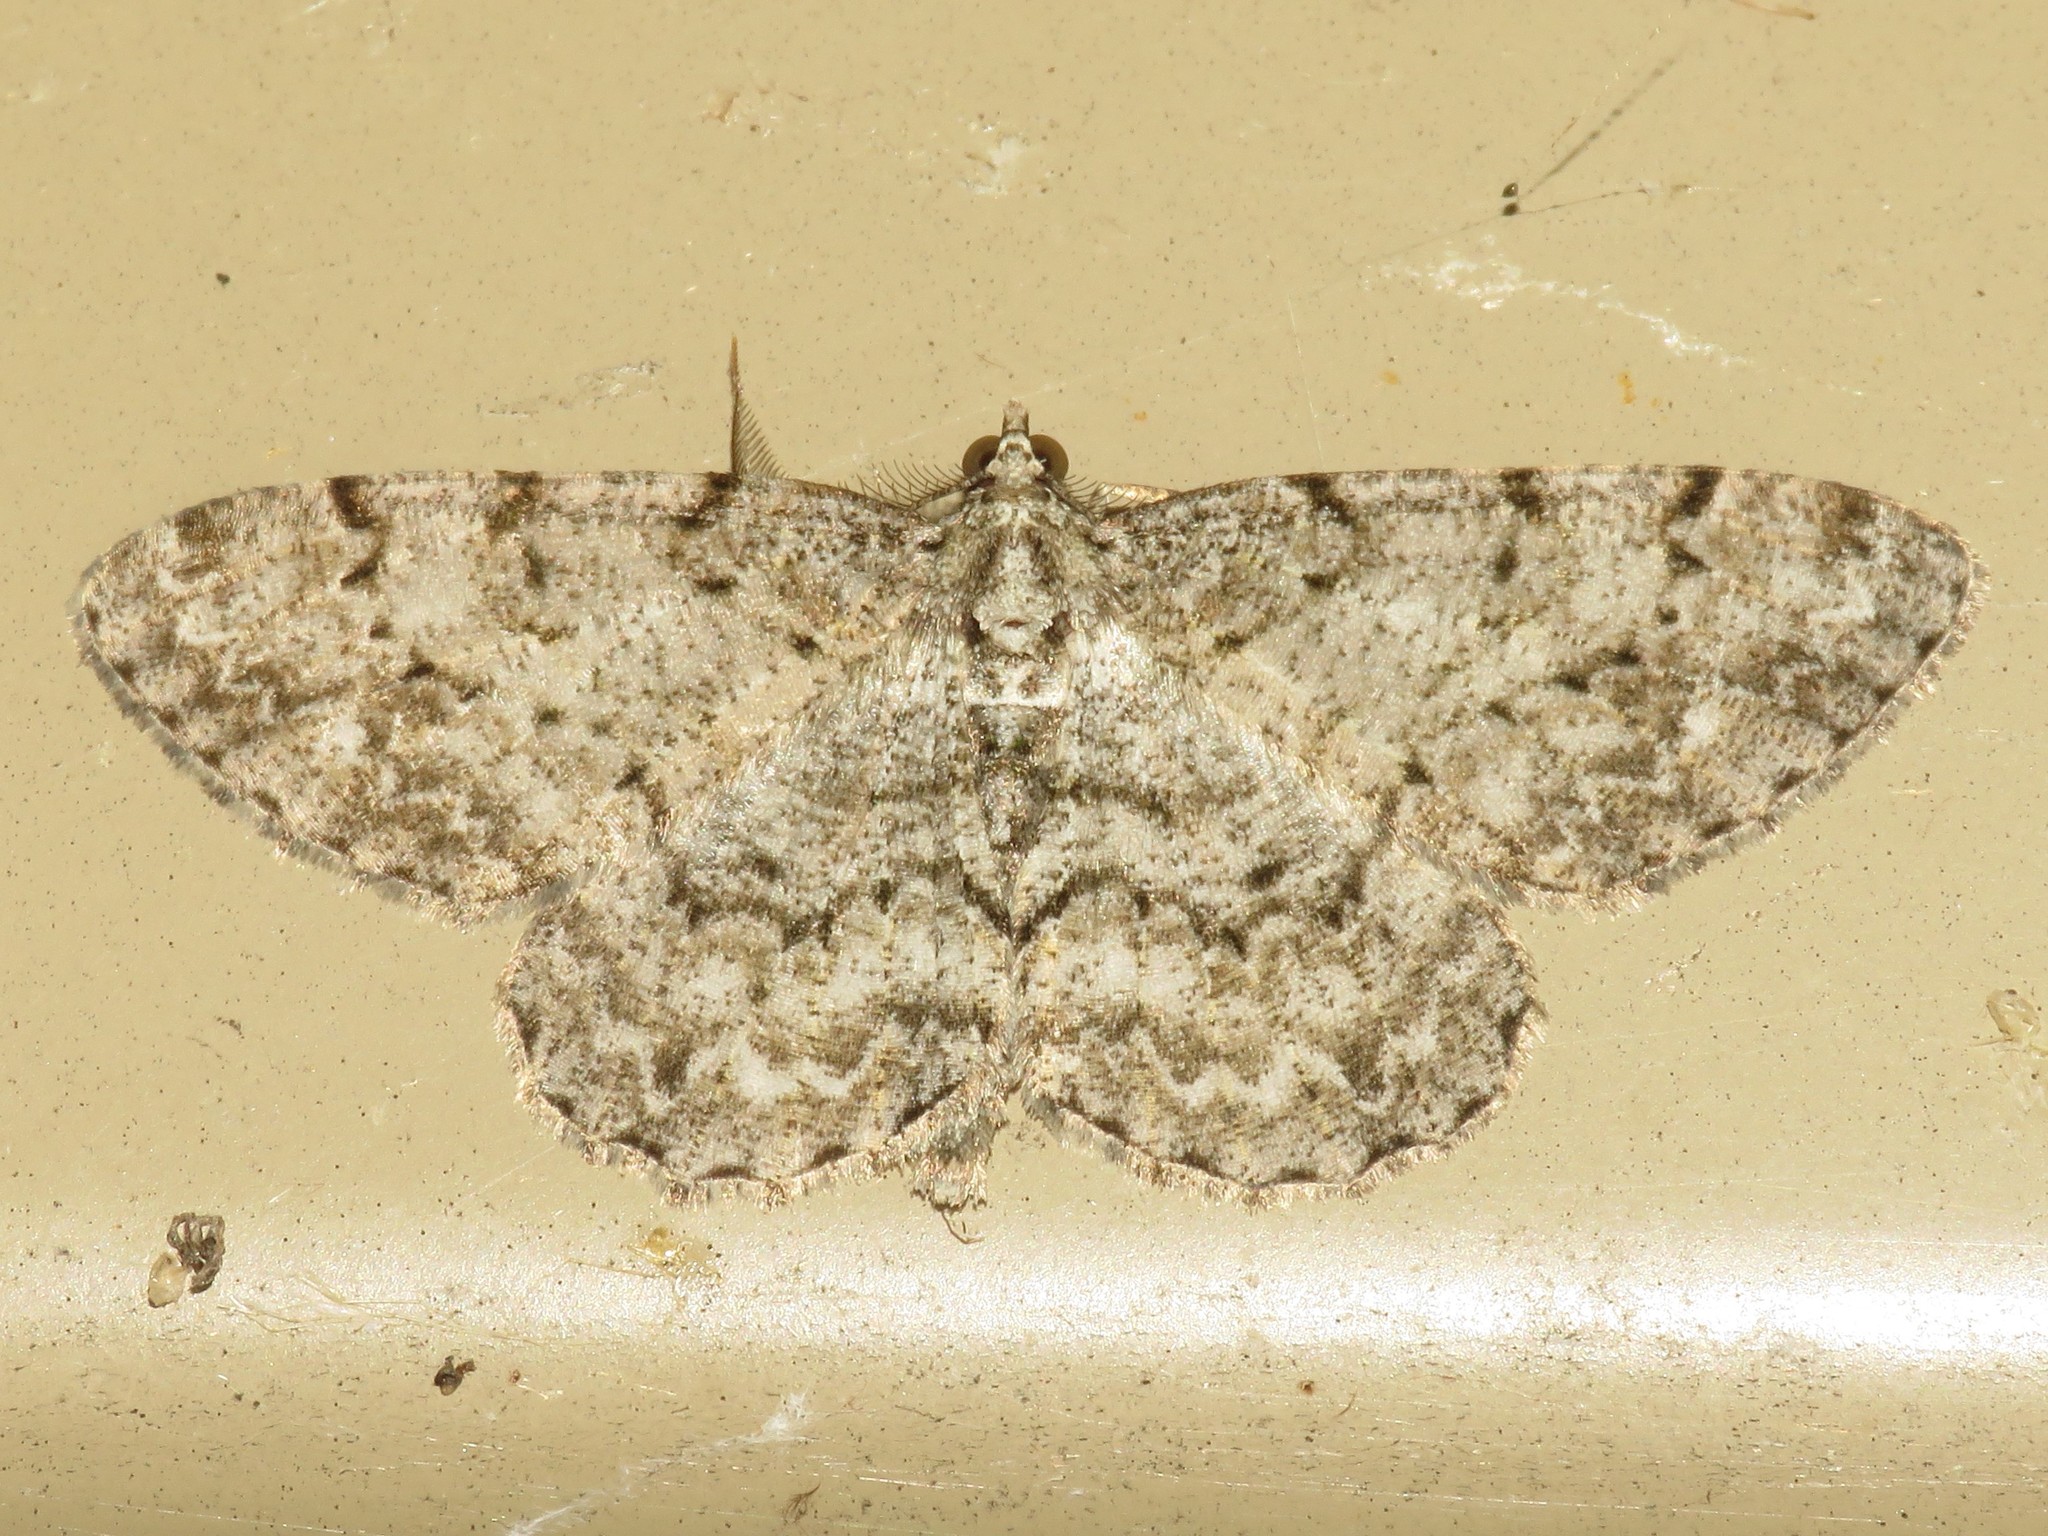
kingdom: Animalia
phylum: Arthropoda
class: Insecta
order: Lepidoptera
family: Geometridae
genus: Protoboarmia
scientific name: Protoboarmia porcelaria
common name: Porcelain gray
